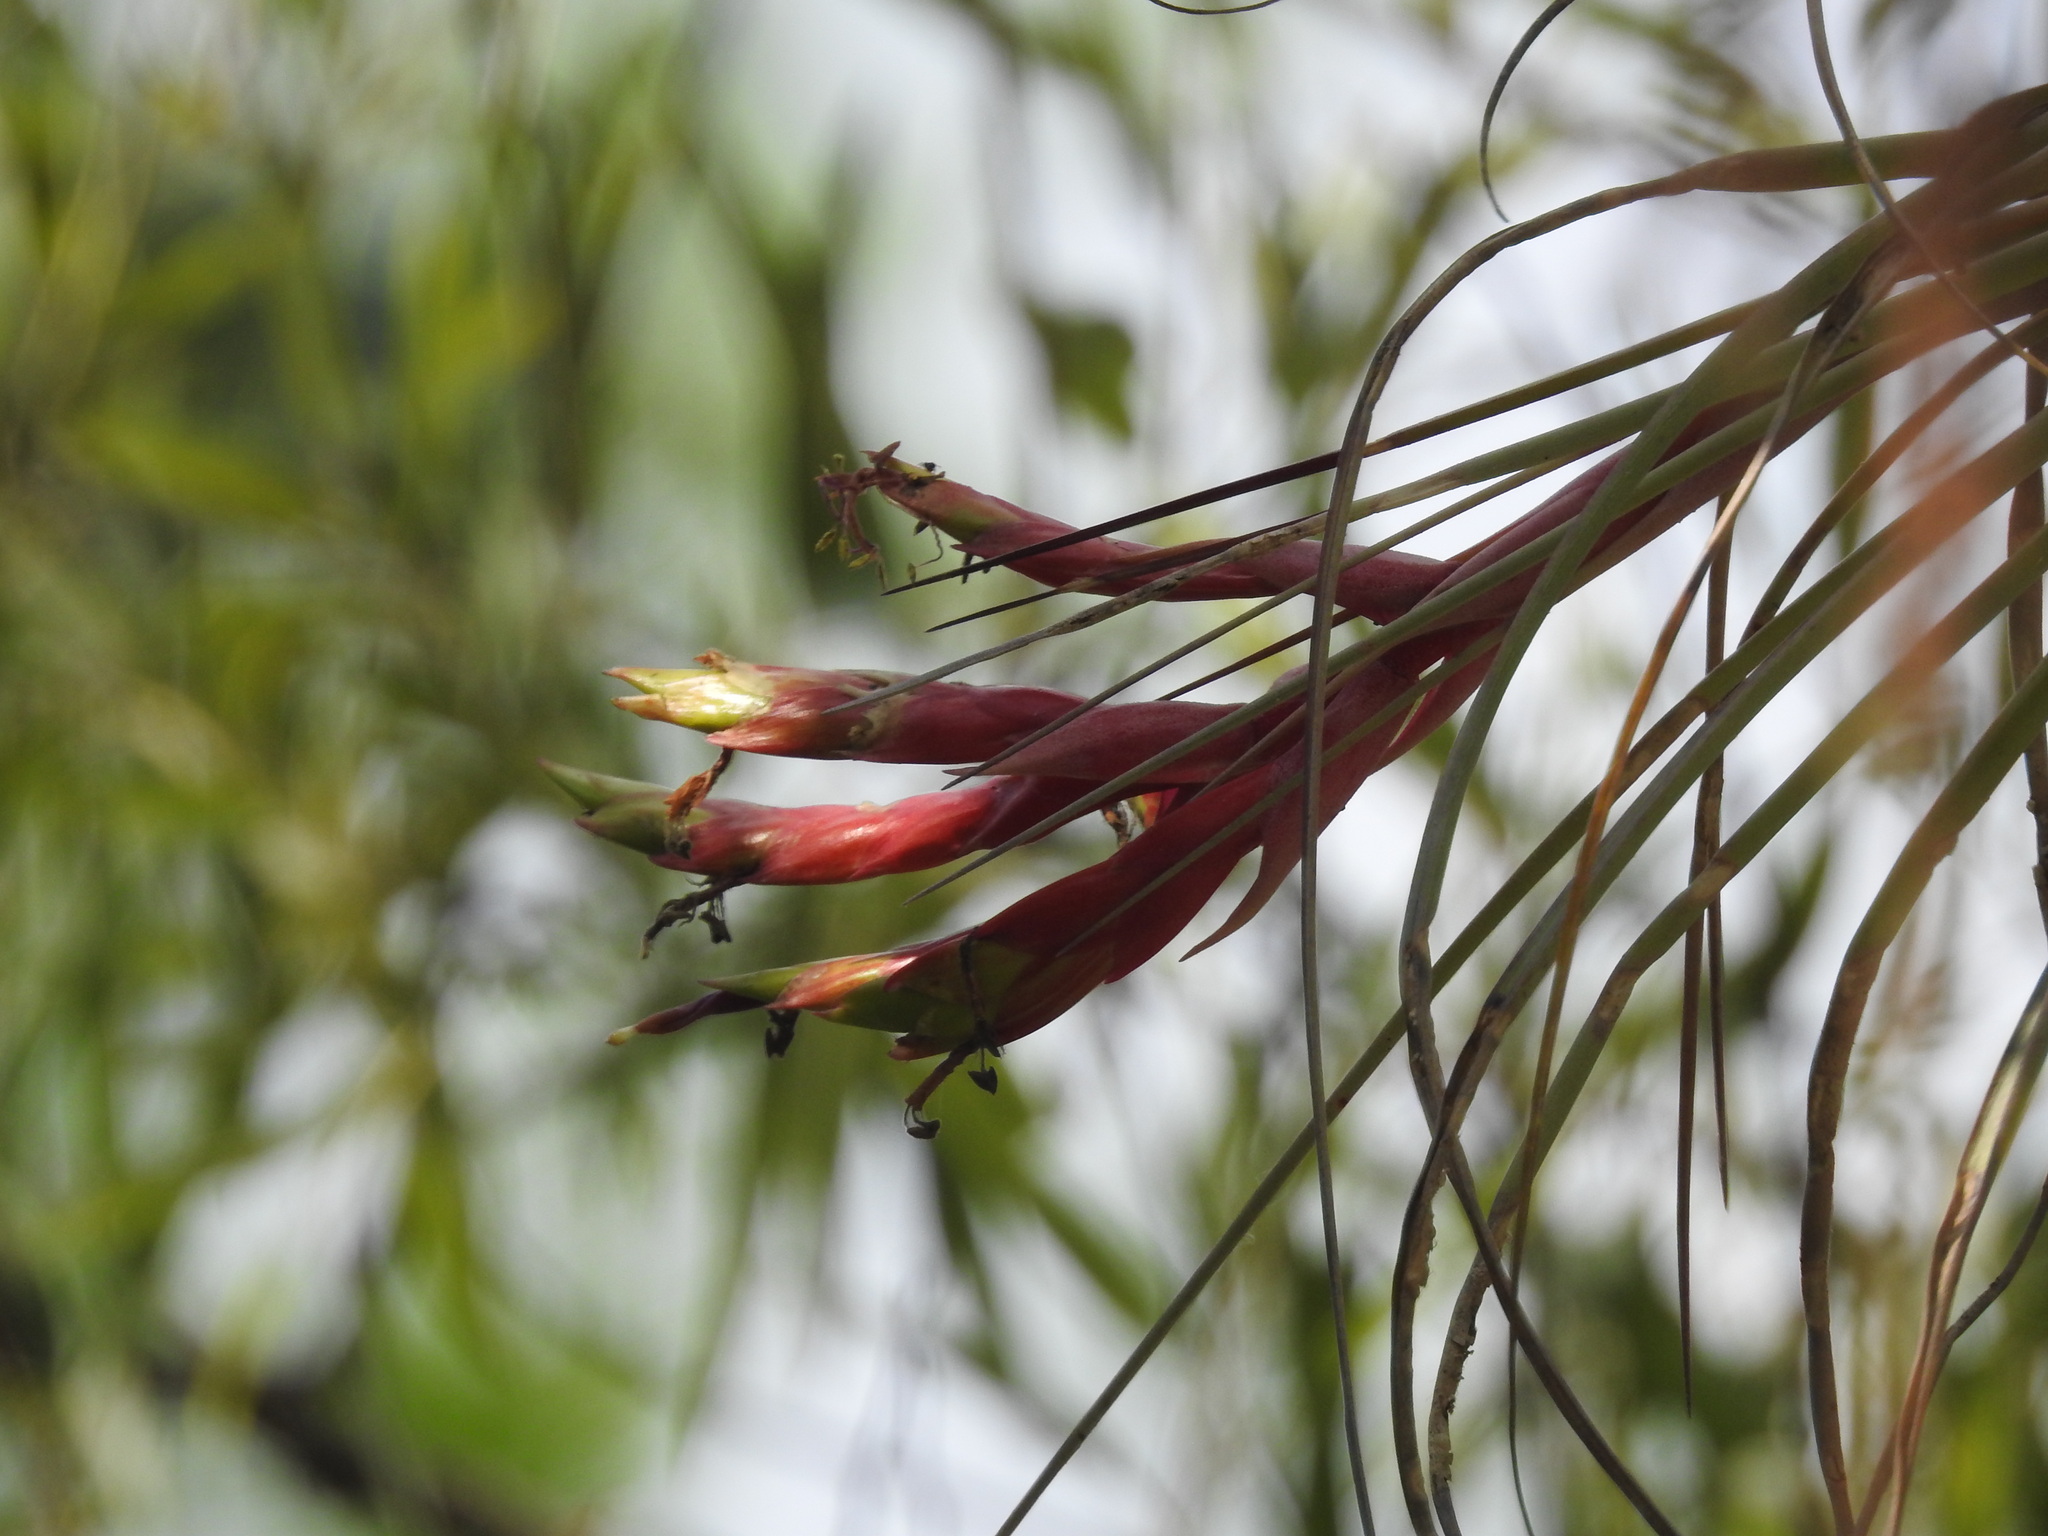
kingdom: Plantae
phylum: Tracheophyta
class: Liliopsida
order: Poales
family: Bromeliaceae
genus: Tillandsia
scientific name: Tillandsia fasciculata
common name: Giant airplant
